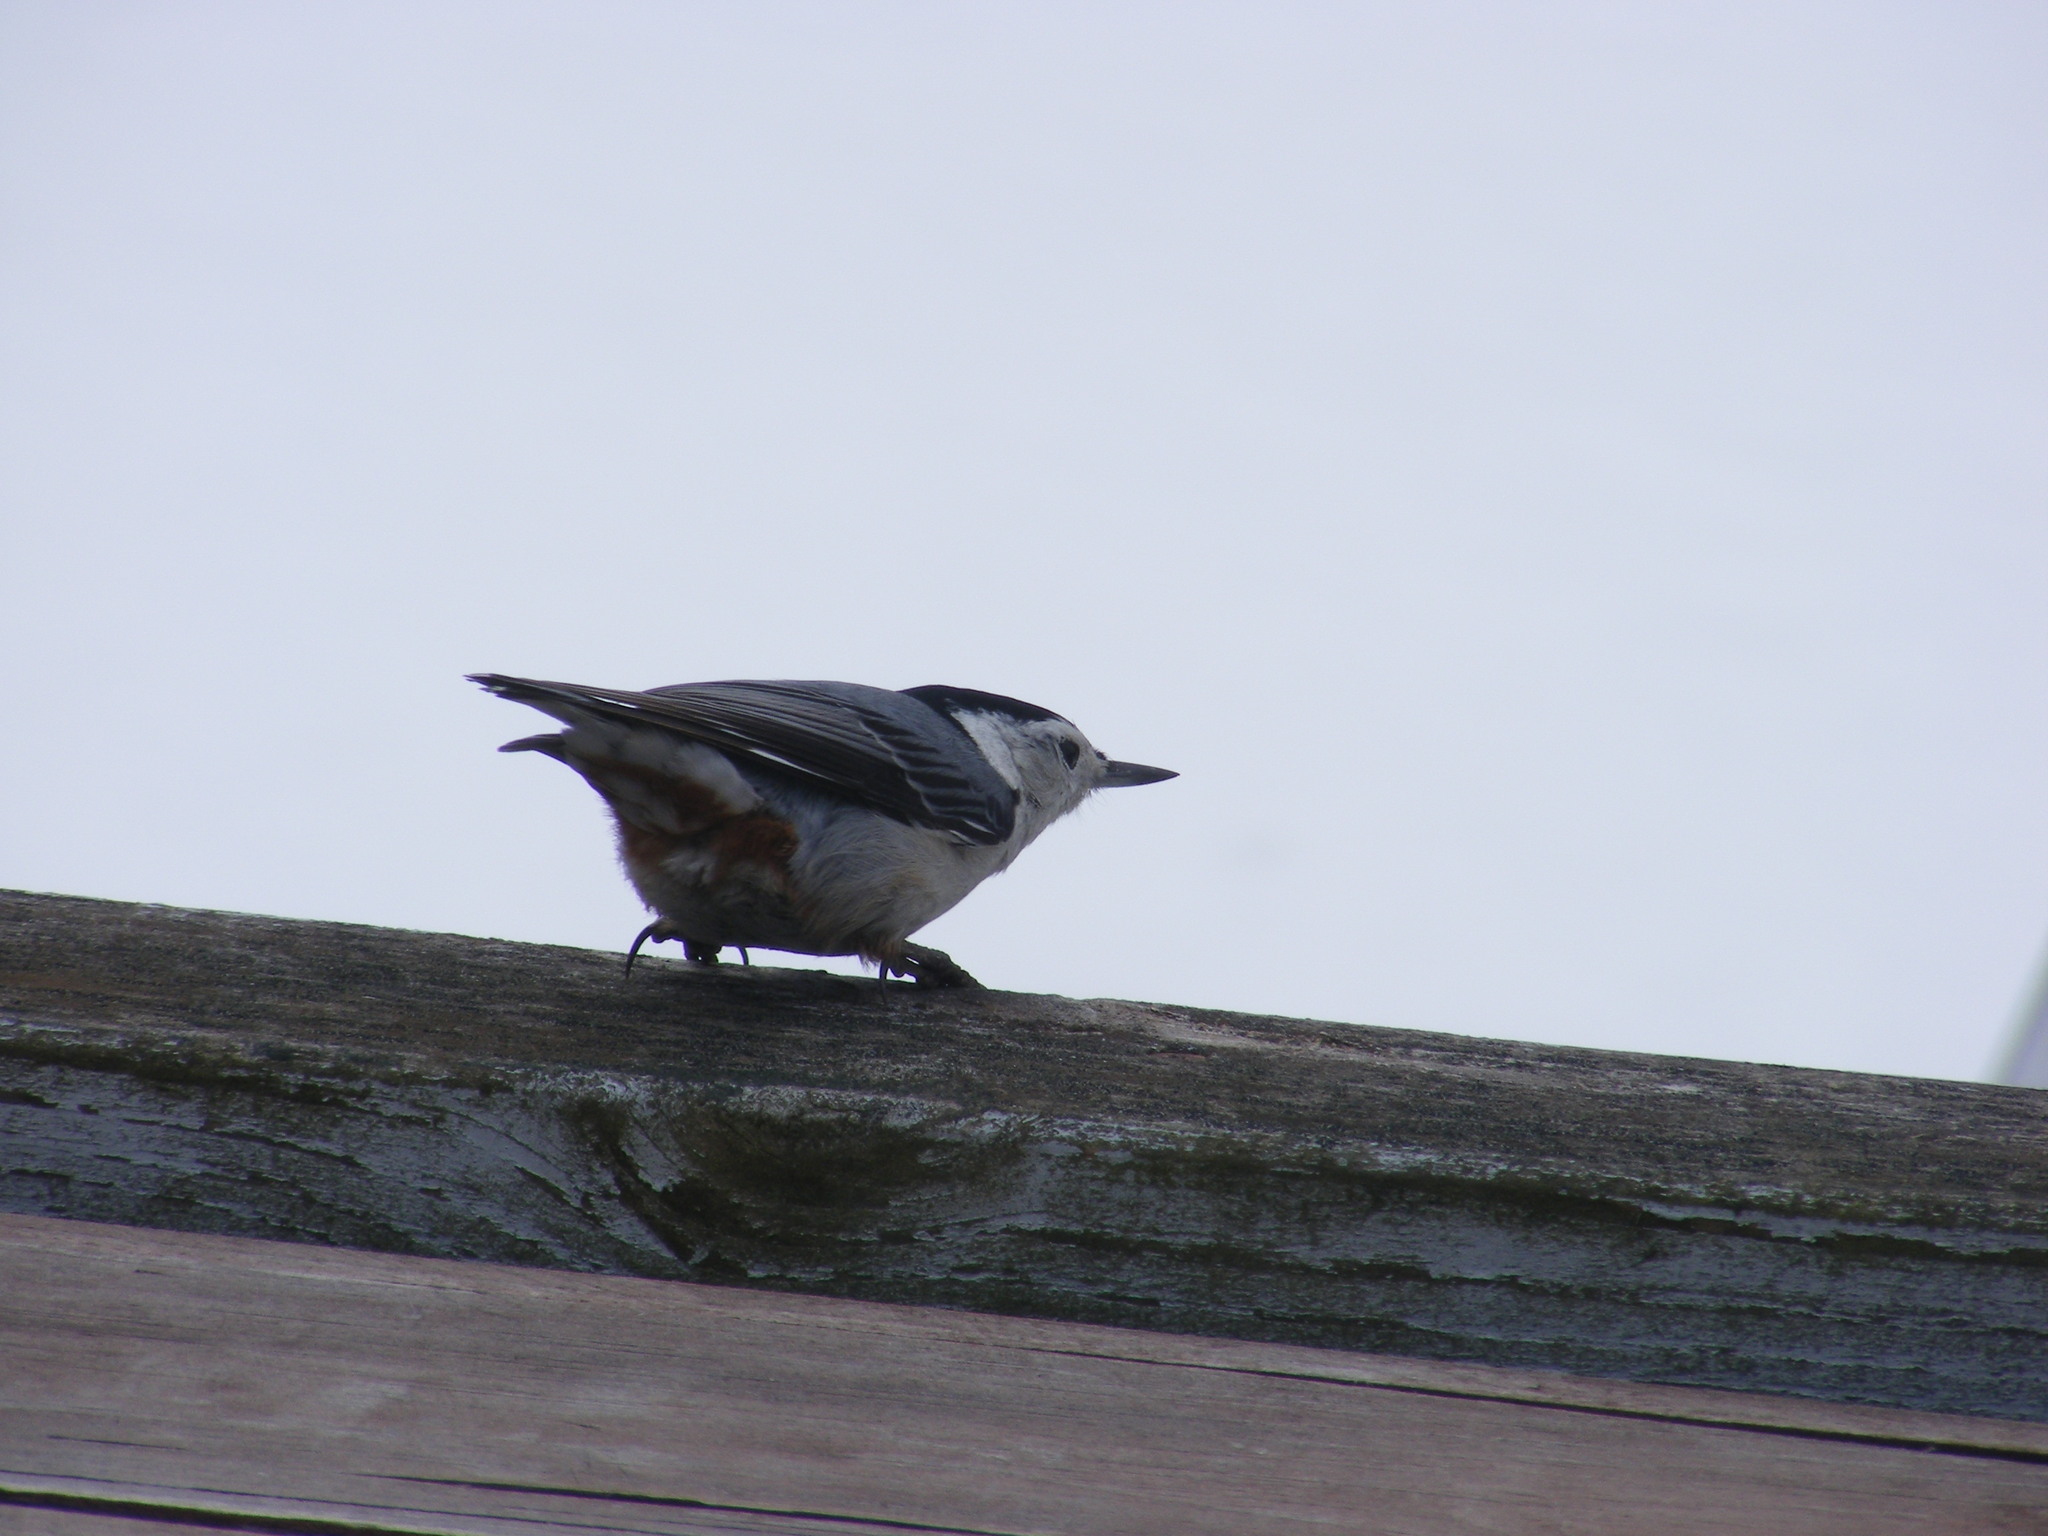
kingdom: Animalia
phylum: Chordata
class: Aves
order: Passeriformes
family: Sittidae
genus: Sitta
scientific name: Sitta carolinensis
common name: White-breasted nuthatch
